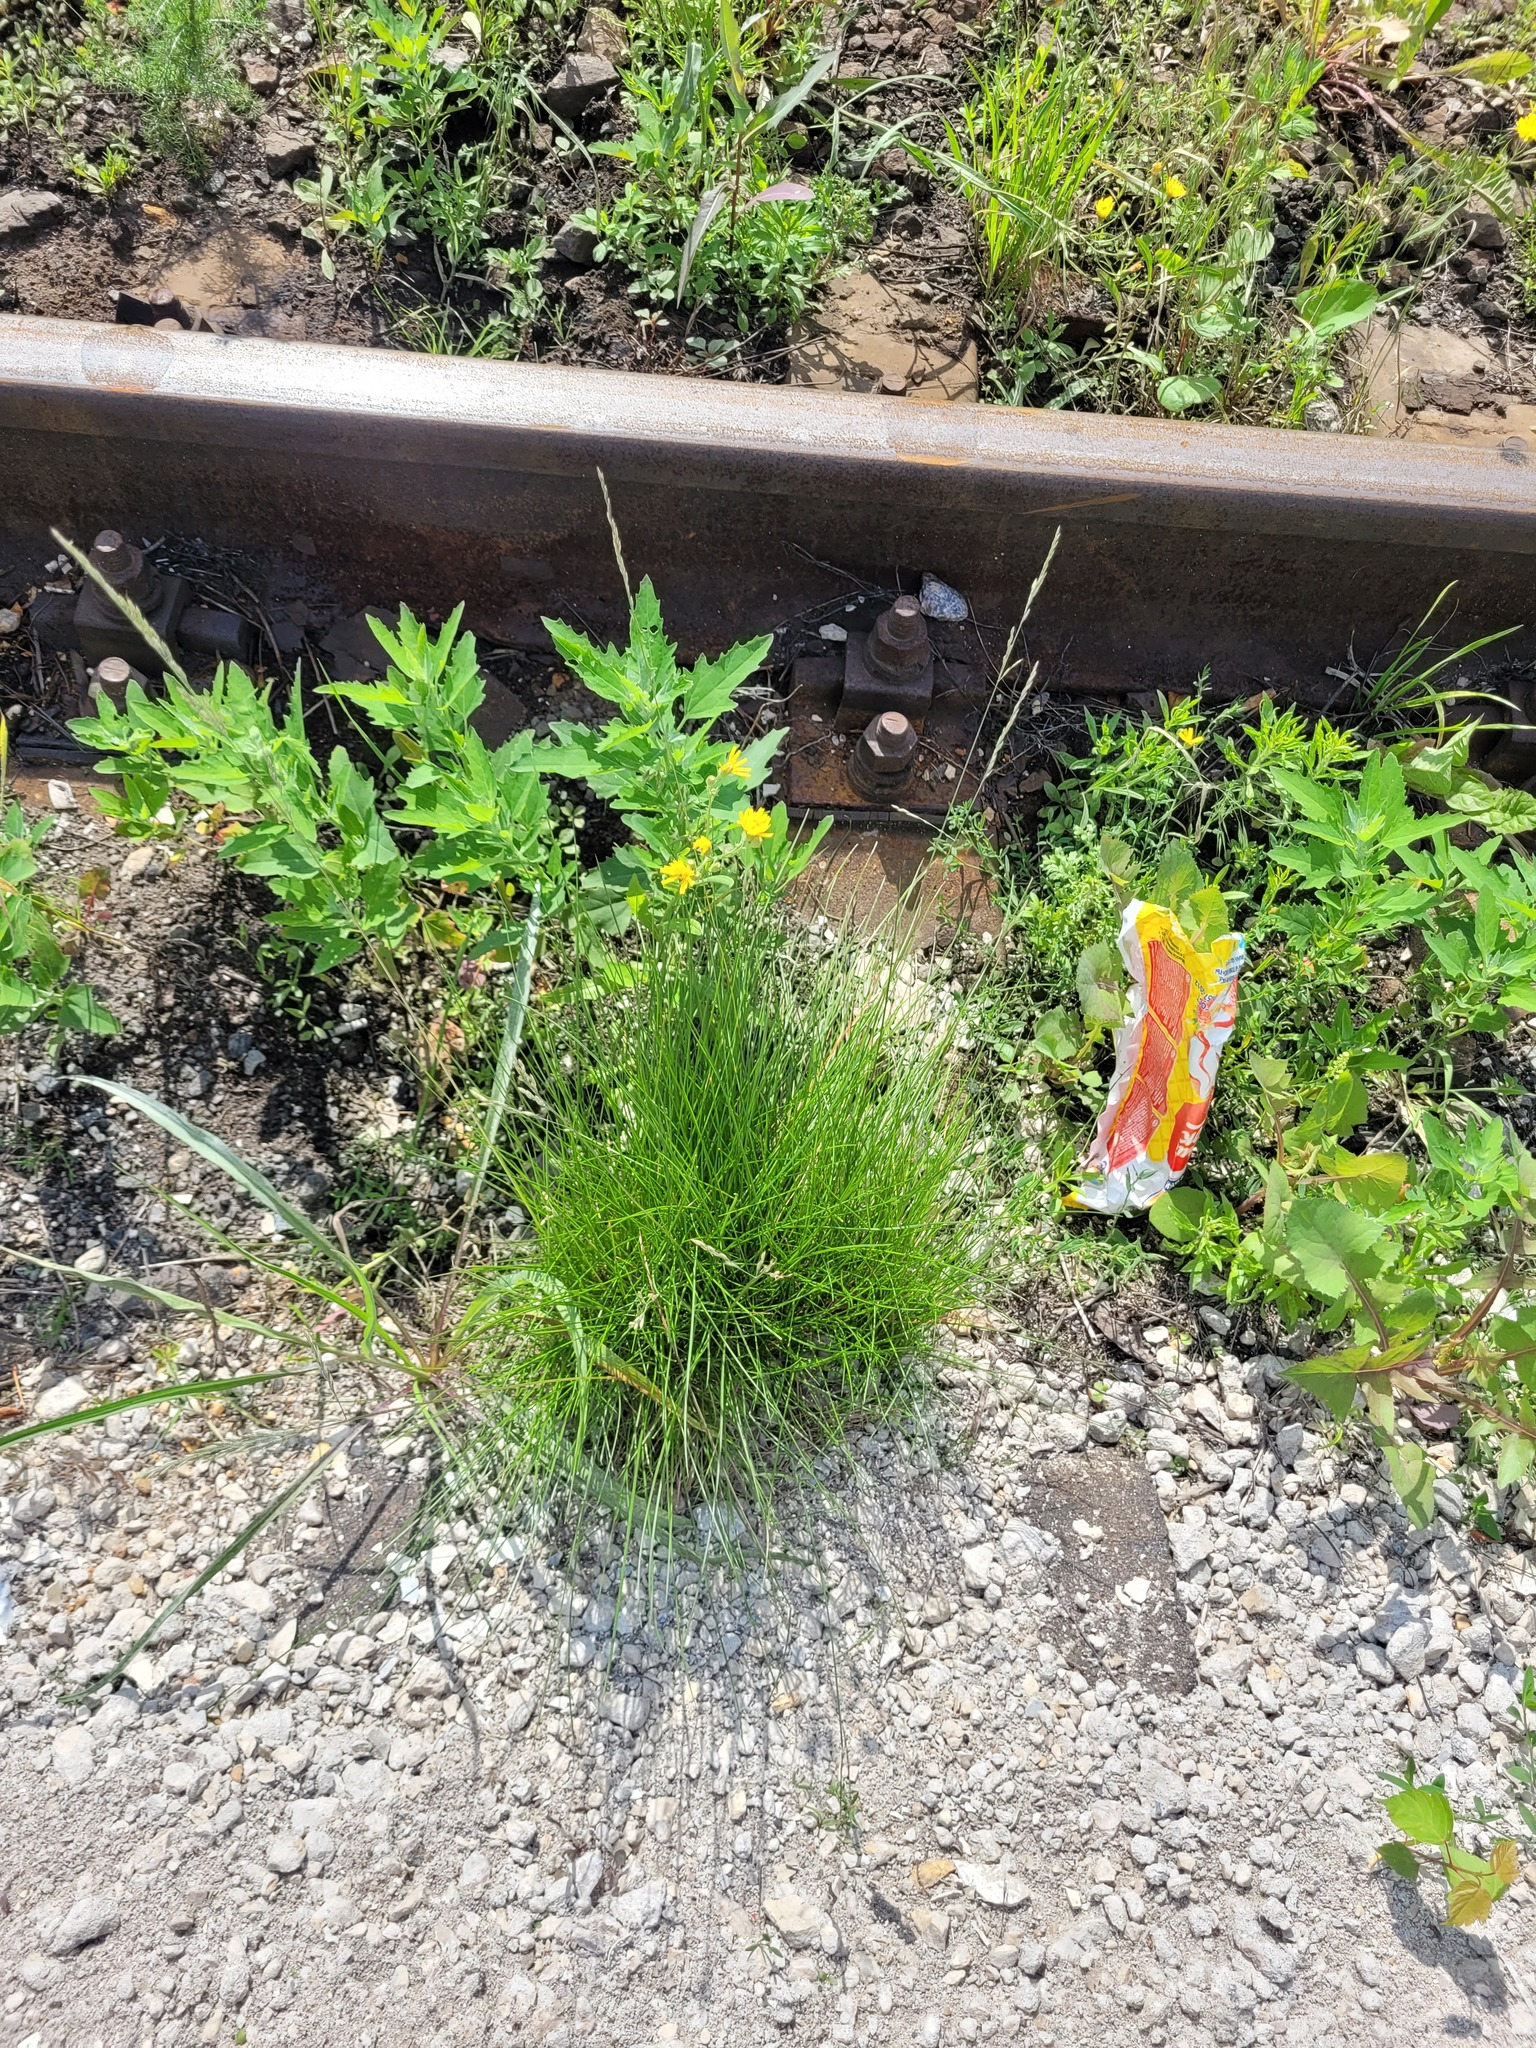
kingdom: Plantae
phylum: Tracheophyta
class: Liliopsida
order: Poales
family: Poaceae
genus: Festuca
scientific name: Festuca rubra
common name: Red fescue
